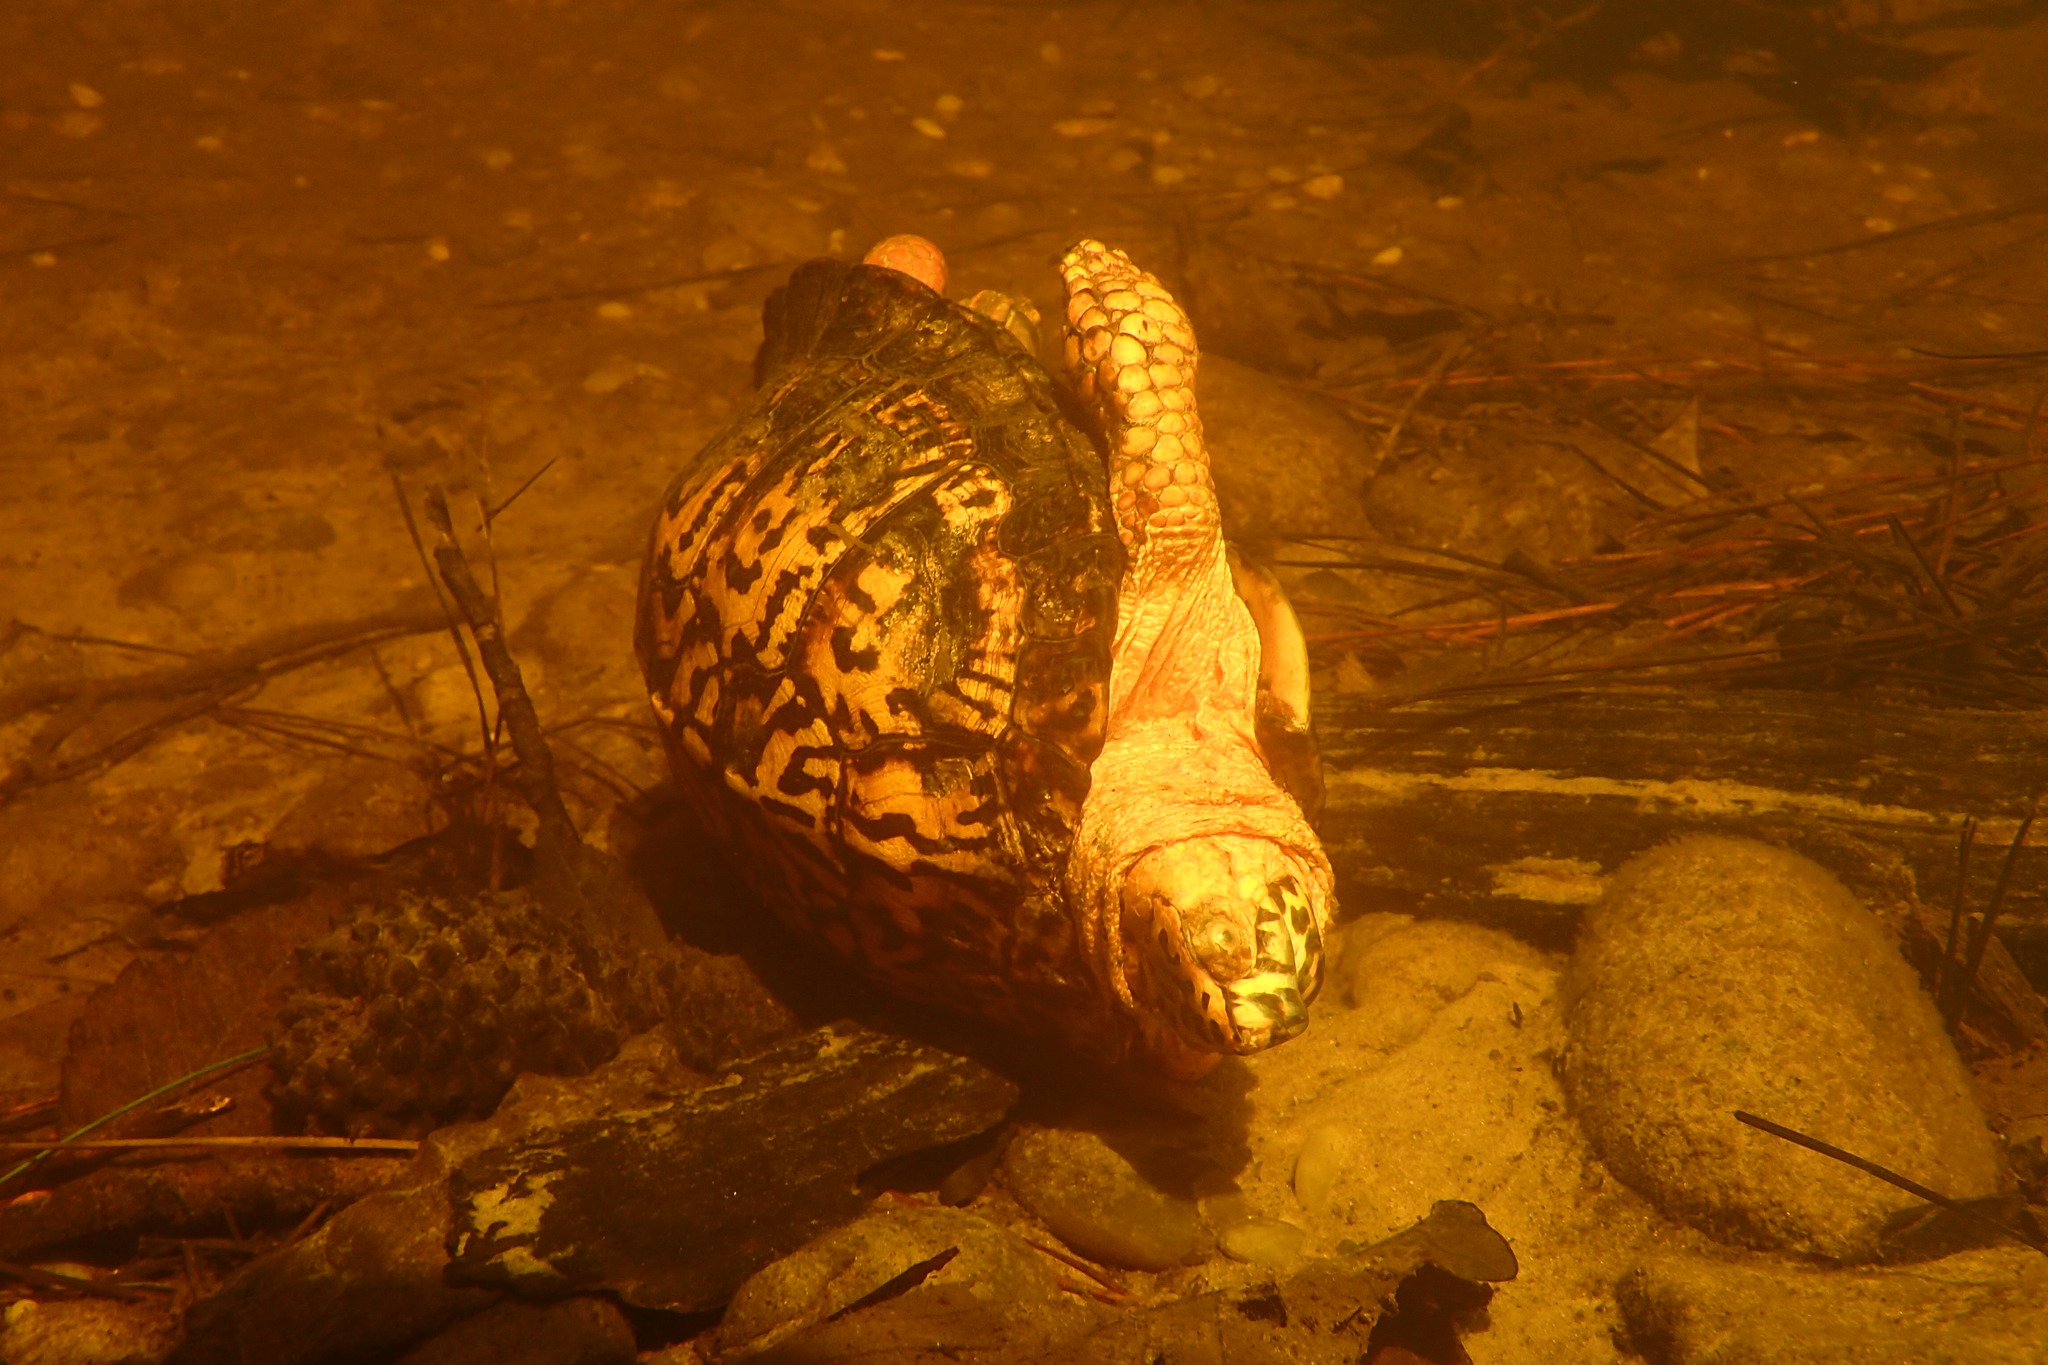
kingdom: Animalia
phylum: Chordata
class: Testudines
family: Emydidae
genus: Terrapene
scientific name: Terrapene carolina
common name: Common box turtle
